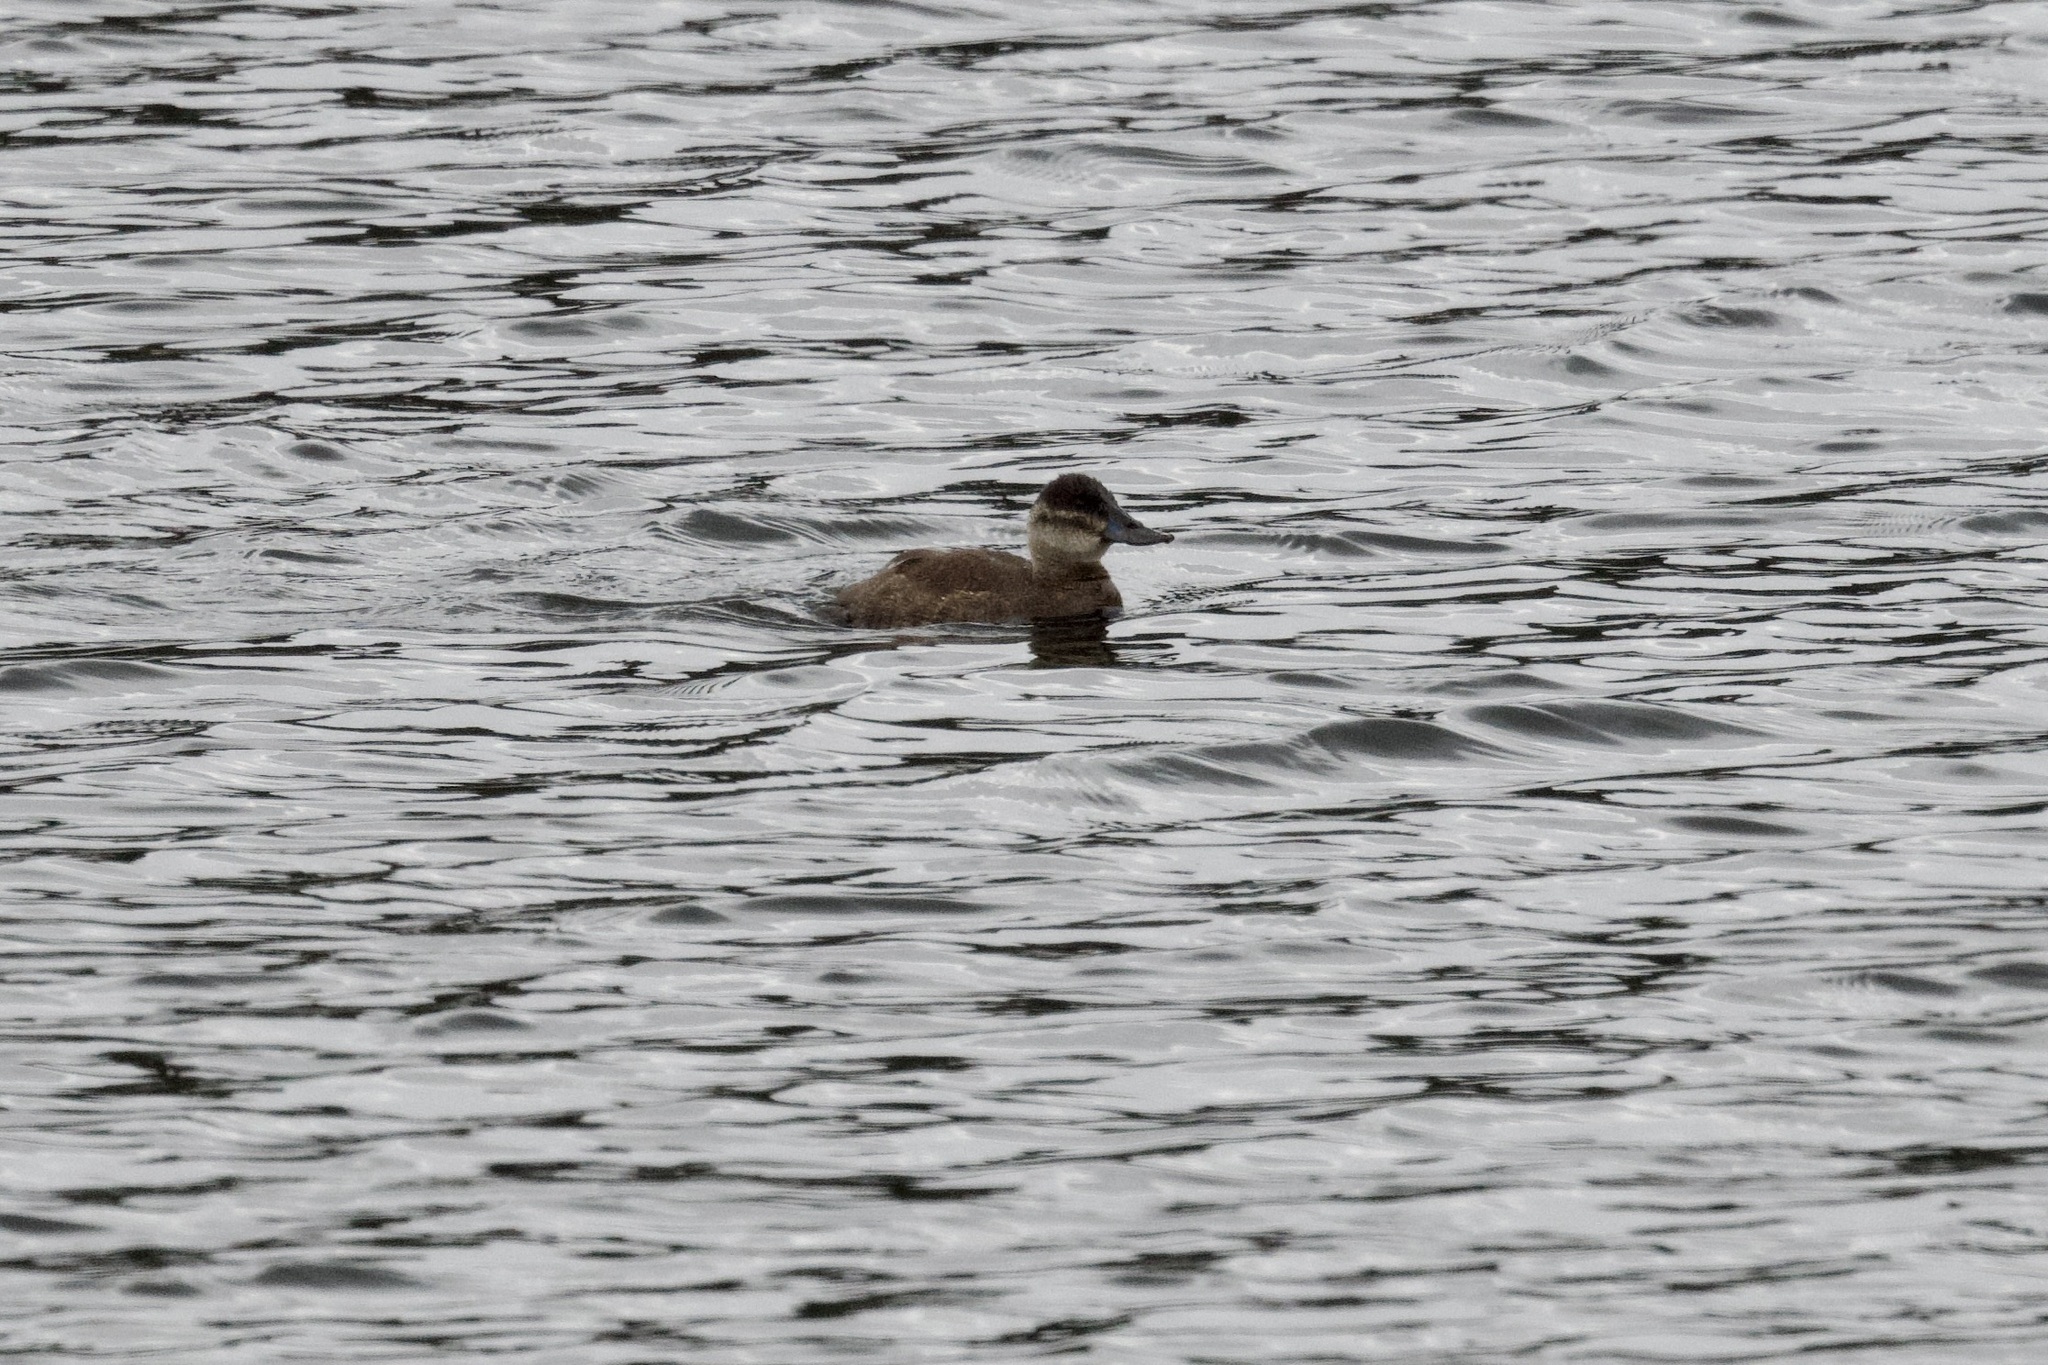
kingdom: Animalia
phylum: Chordata
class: Aves
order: Anseriformes
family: Anatidae
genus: Oxyura
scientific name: Oxyura ferruginea
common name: Andean duck
